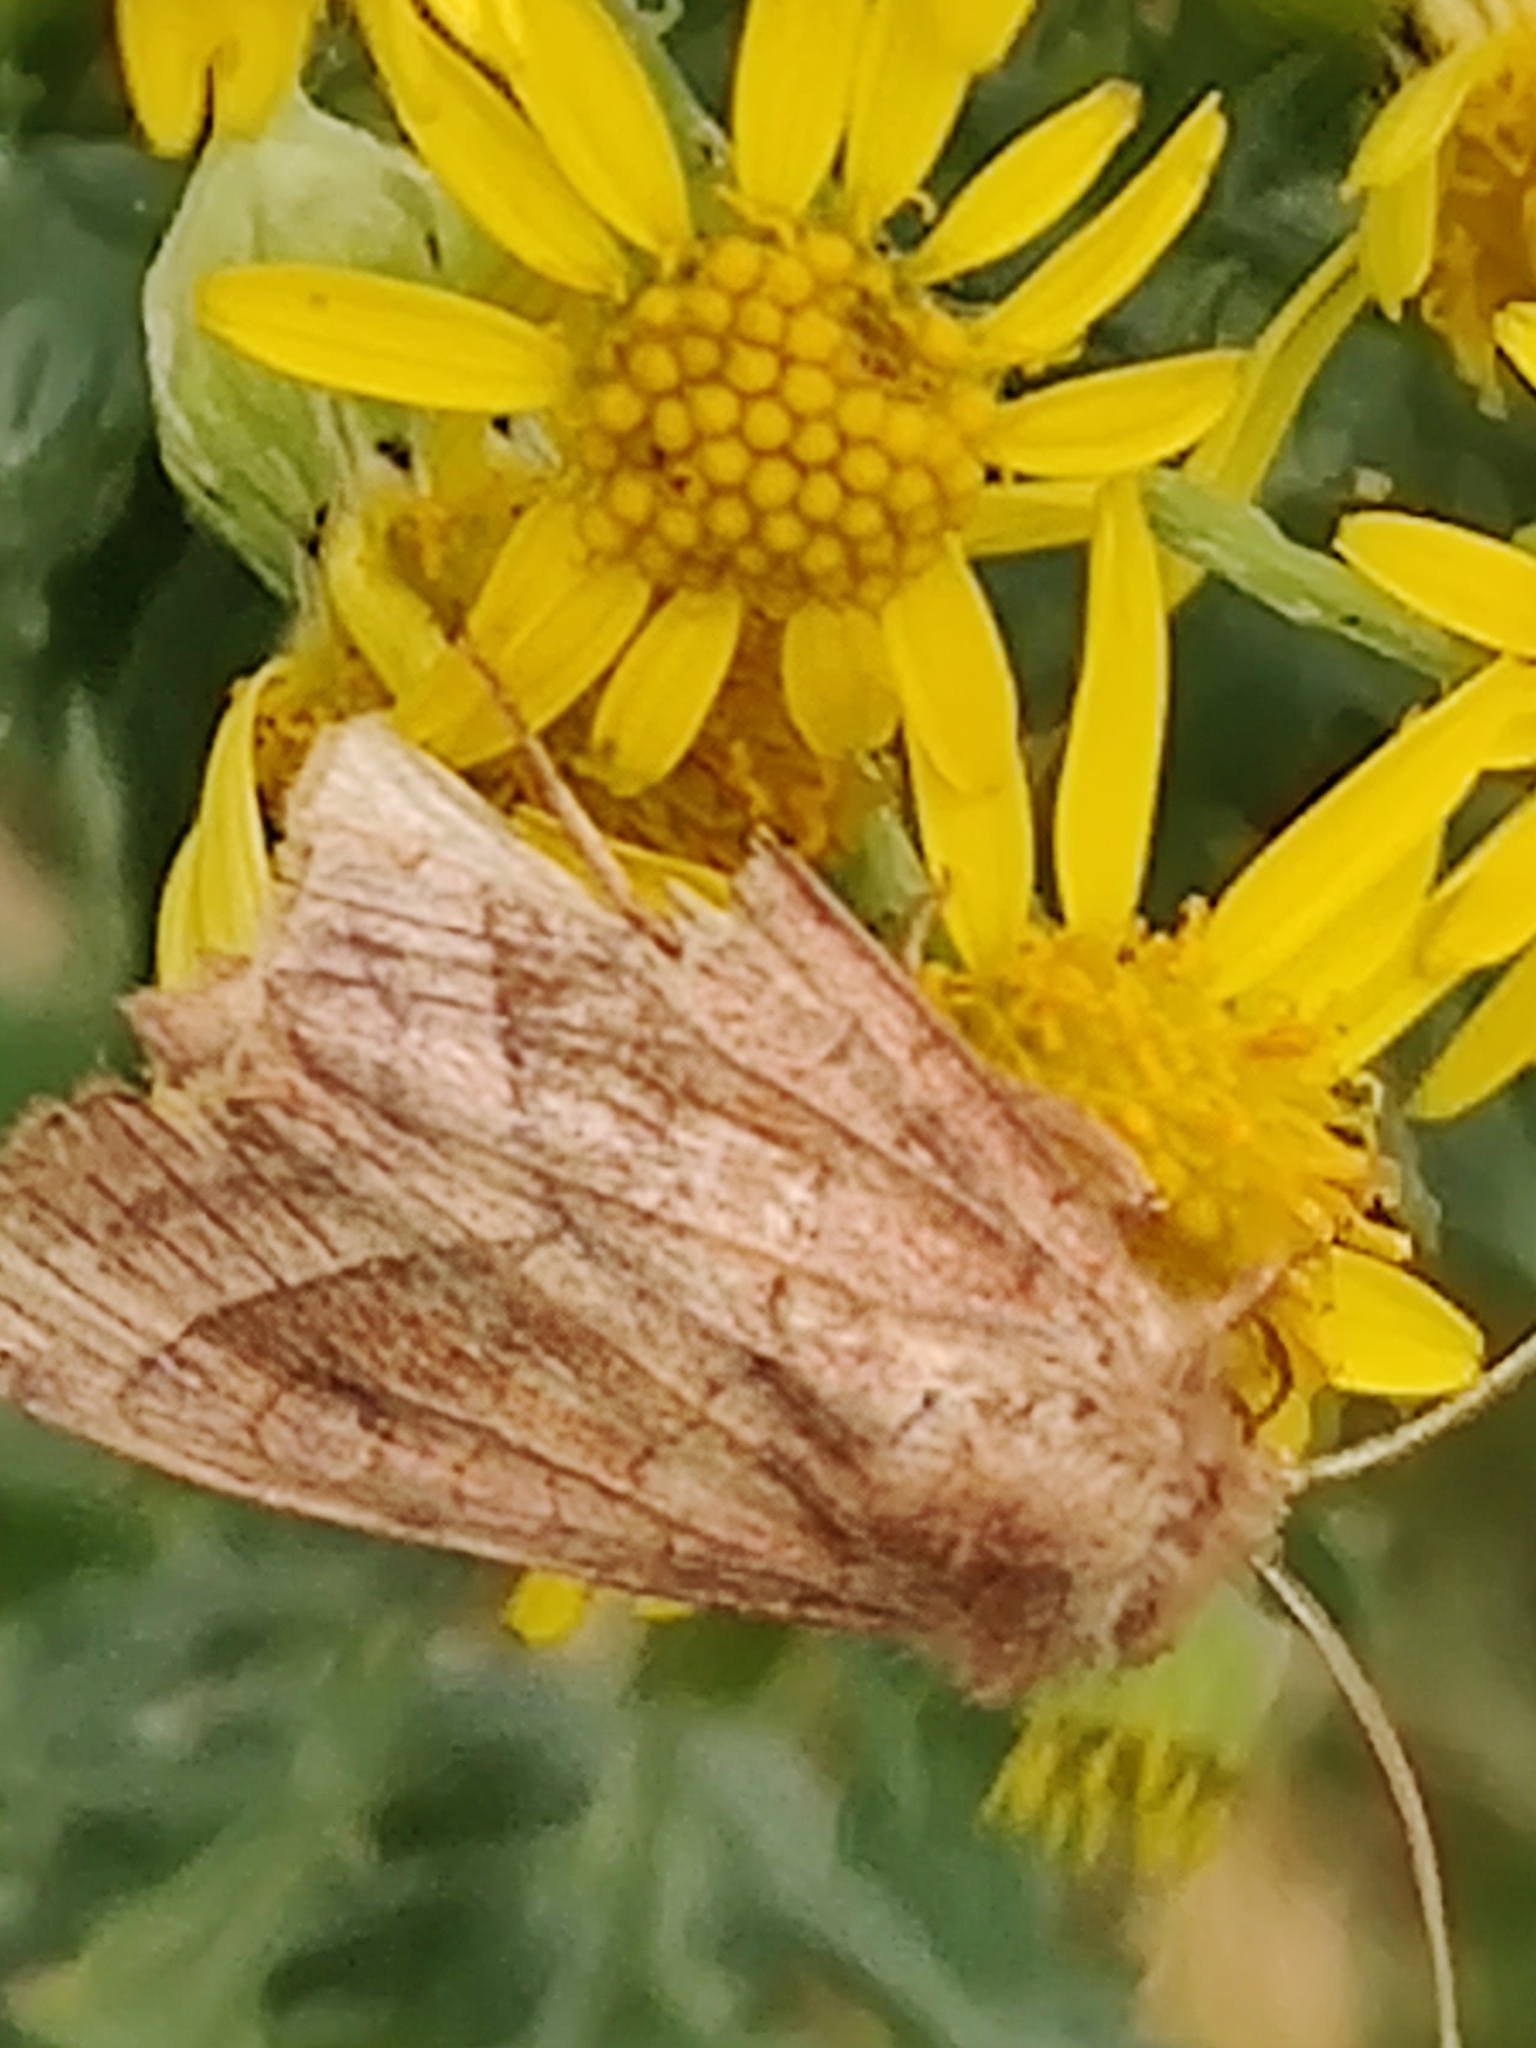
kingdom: Animalia
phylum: Arthropoda
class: Insecta
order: Lepidoptera
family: Noctuidae
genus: Hydraecia
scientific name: Hydraecia micacea
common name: Rosy rustic
